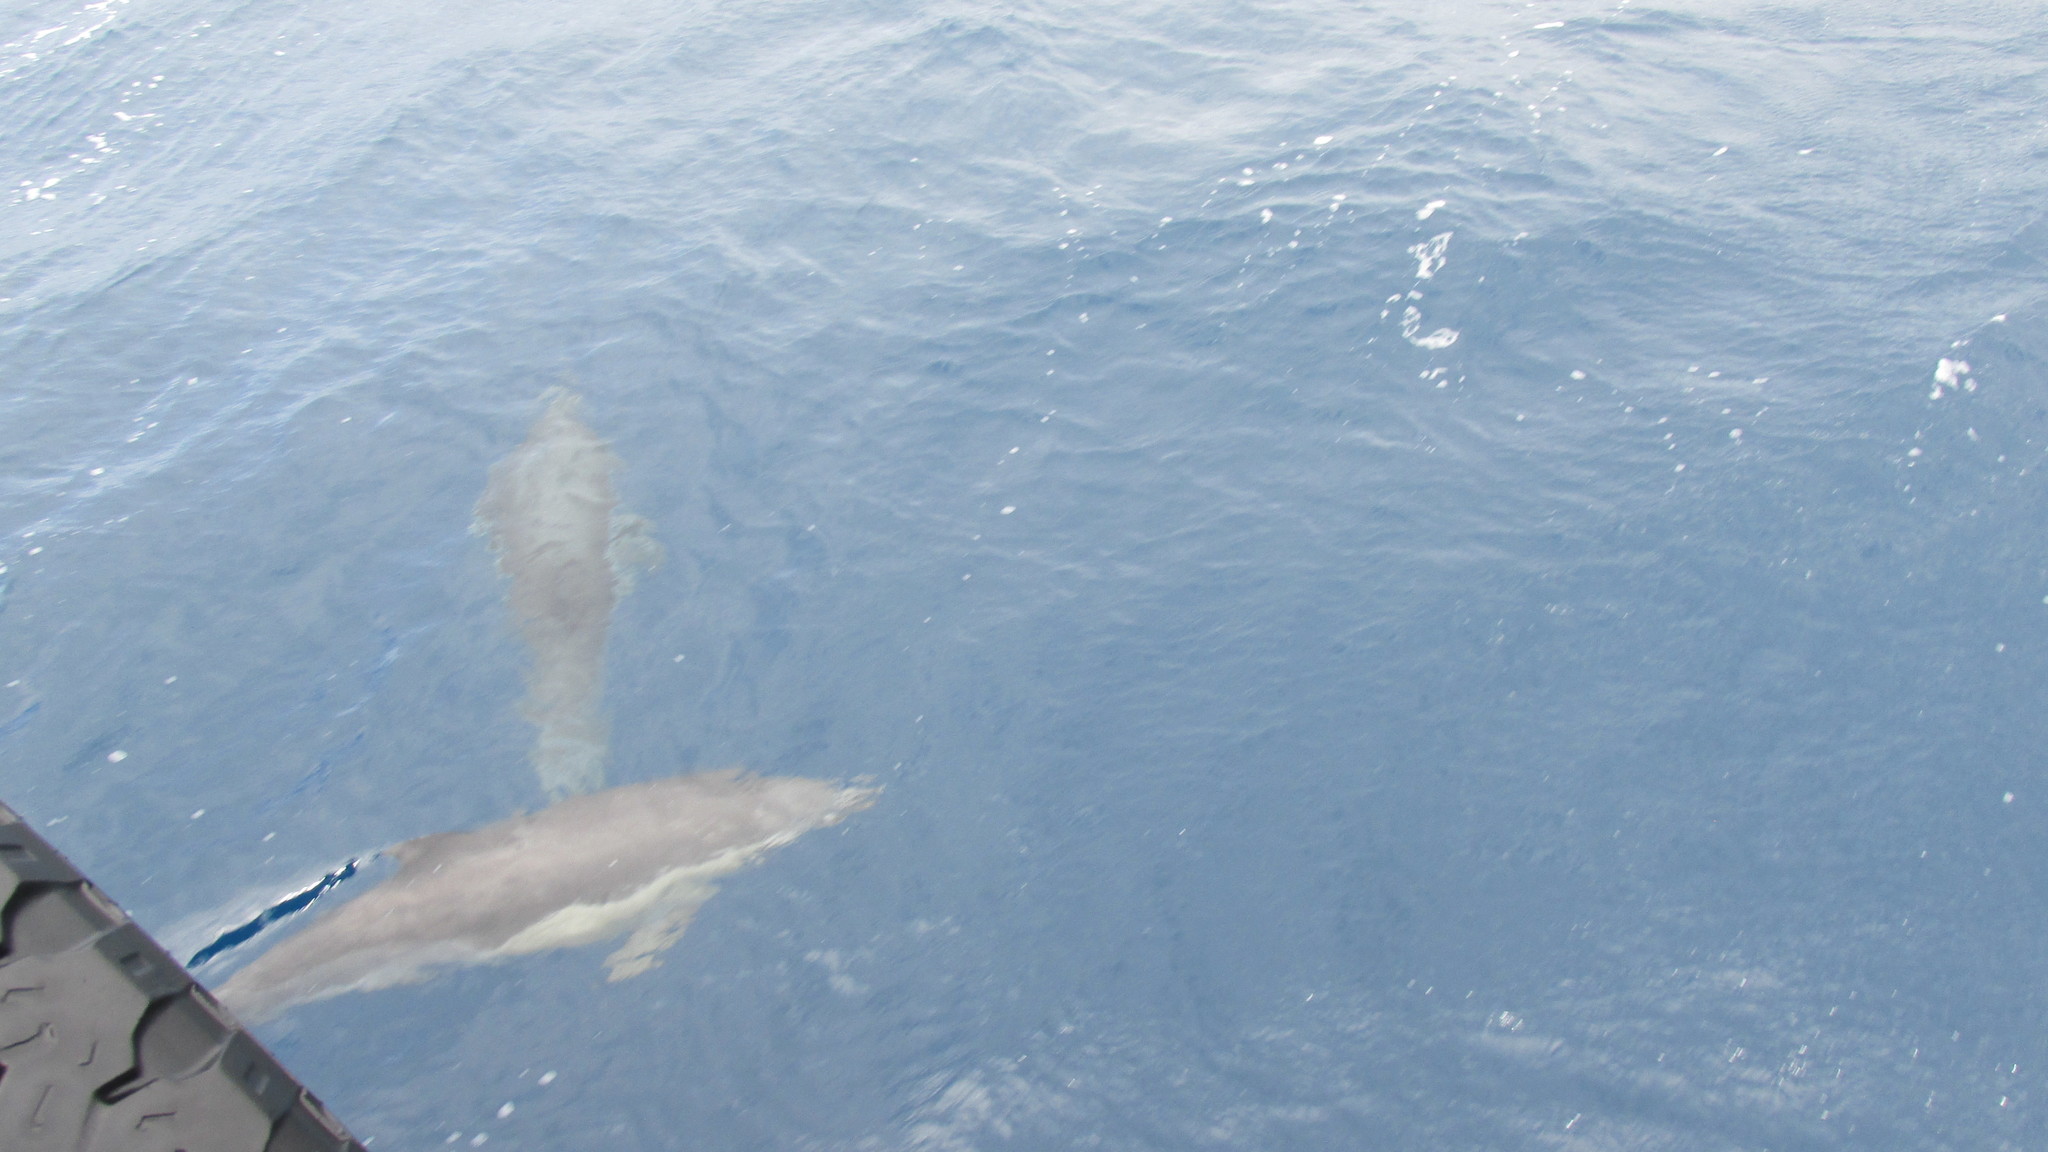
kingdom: Animalia
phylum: Chordata
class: Mammalia
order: Cetacea
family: Delphinidae
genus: Delphinus
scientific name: Delphinus delphis
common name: Common dolphin
